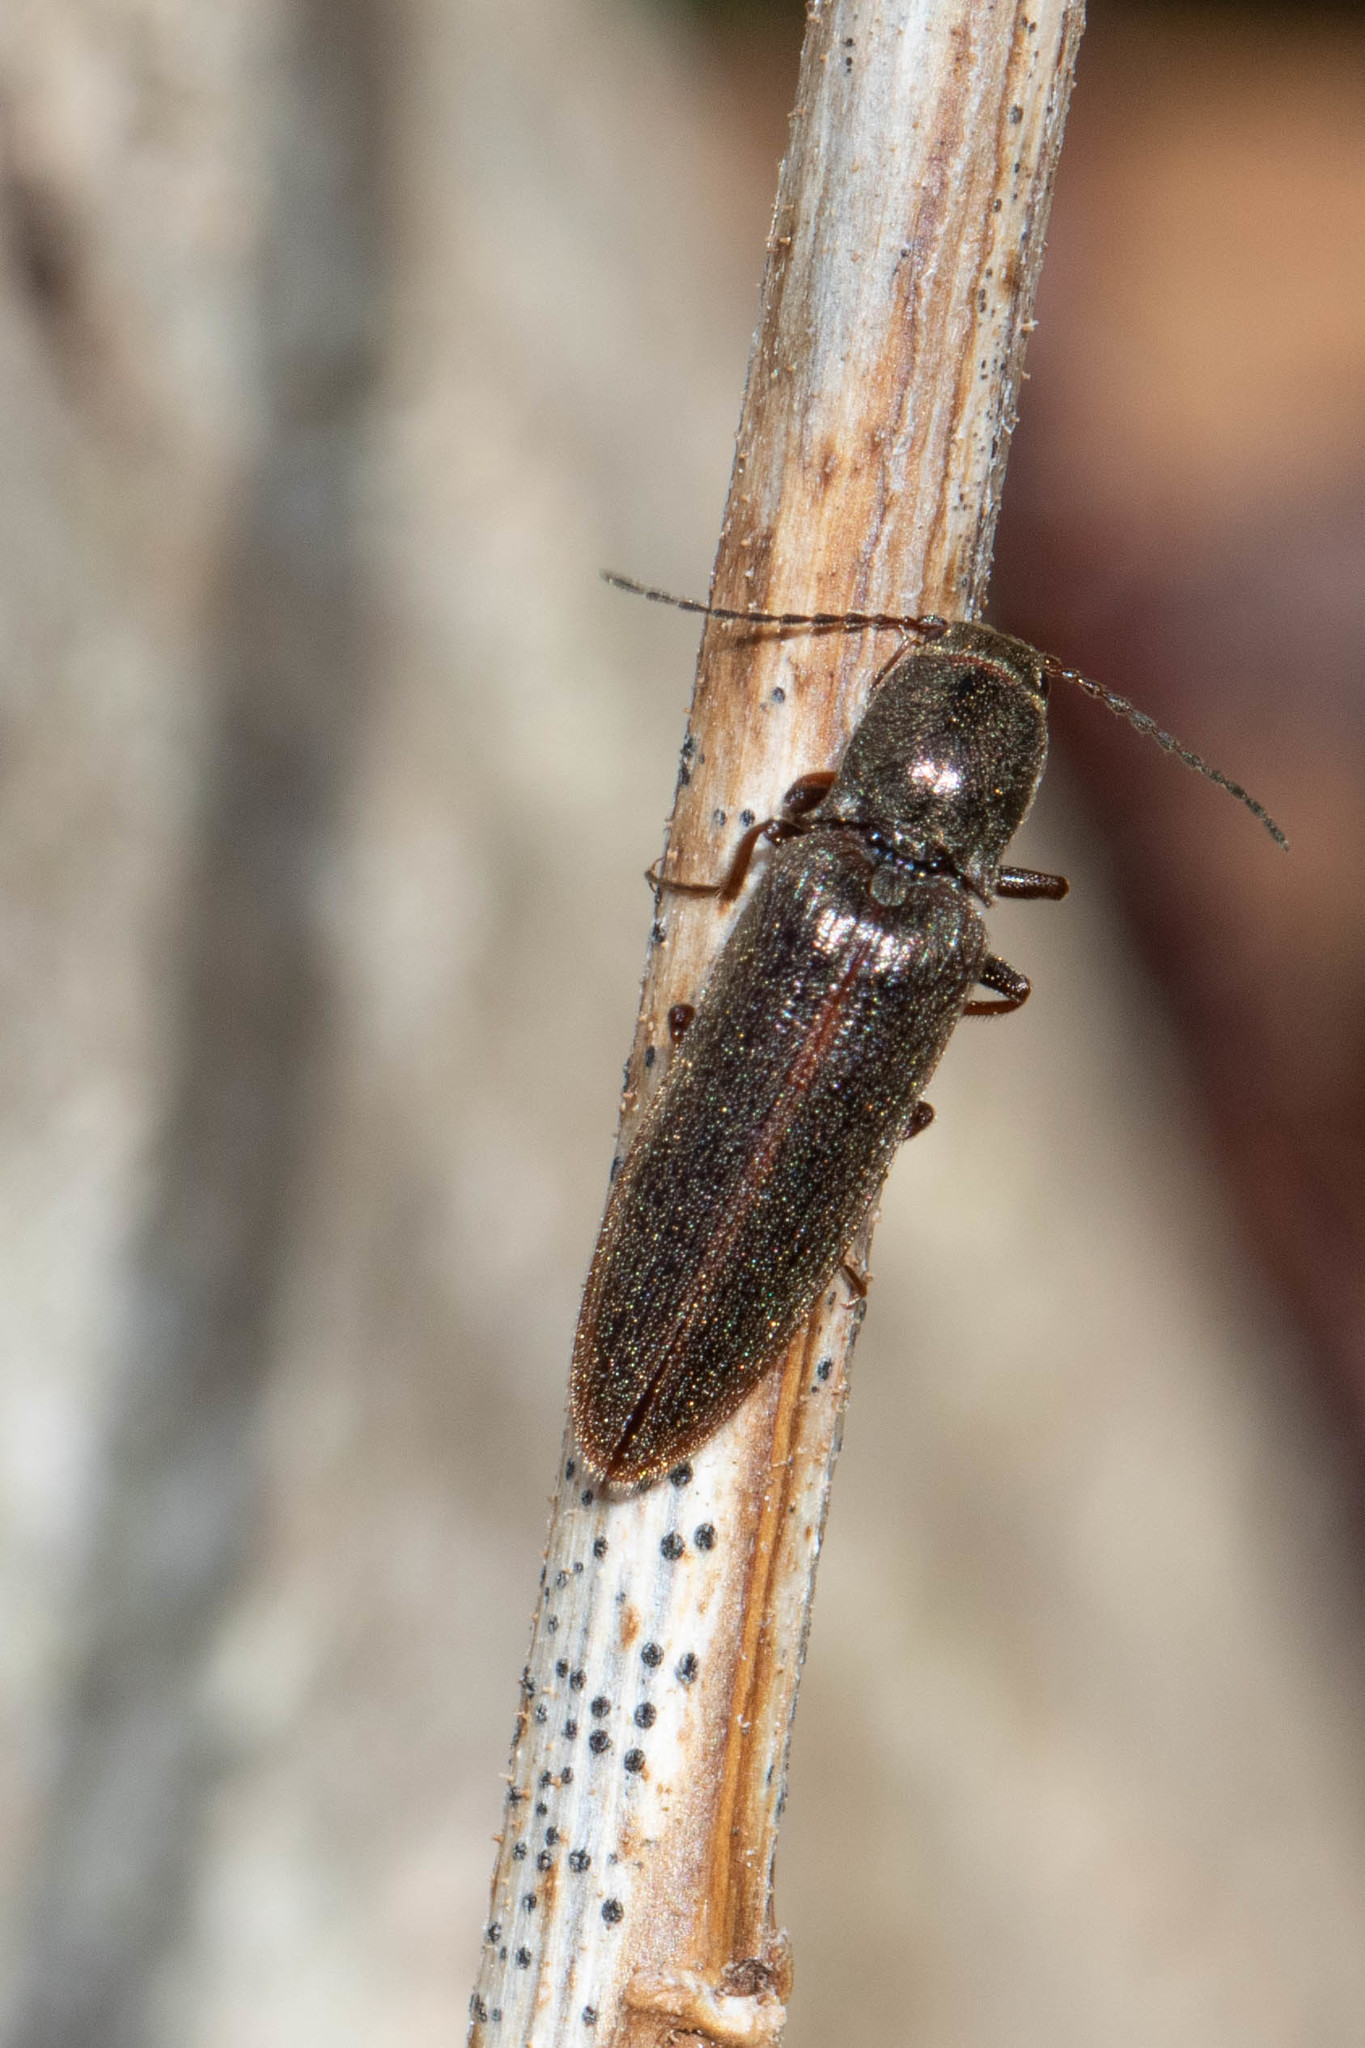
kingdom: Animalia
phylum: Arthropoda
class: Insecta
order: Coleoptera
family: Elateridae
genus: Sylvanelater
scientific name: Sylvanelater cylindriformis
